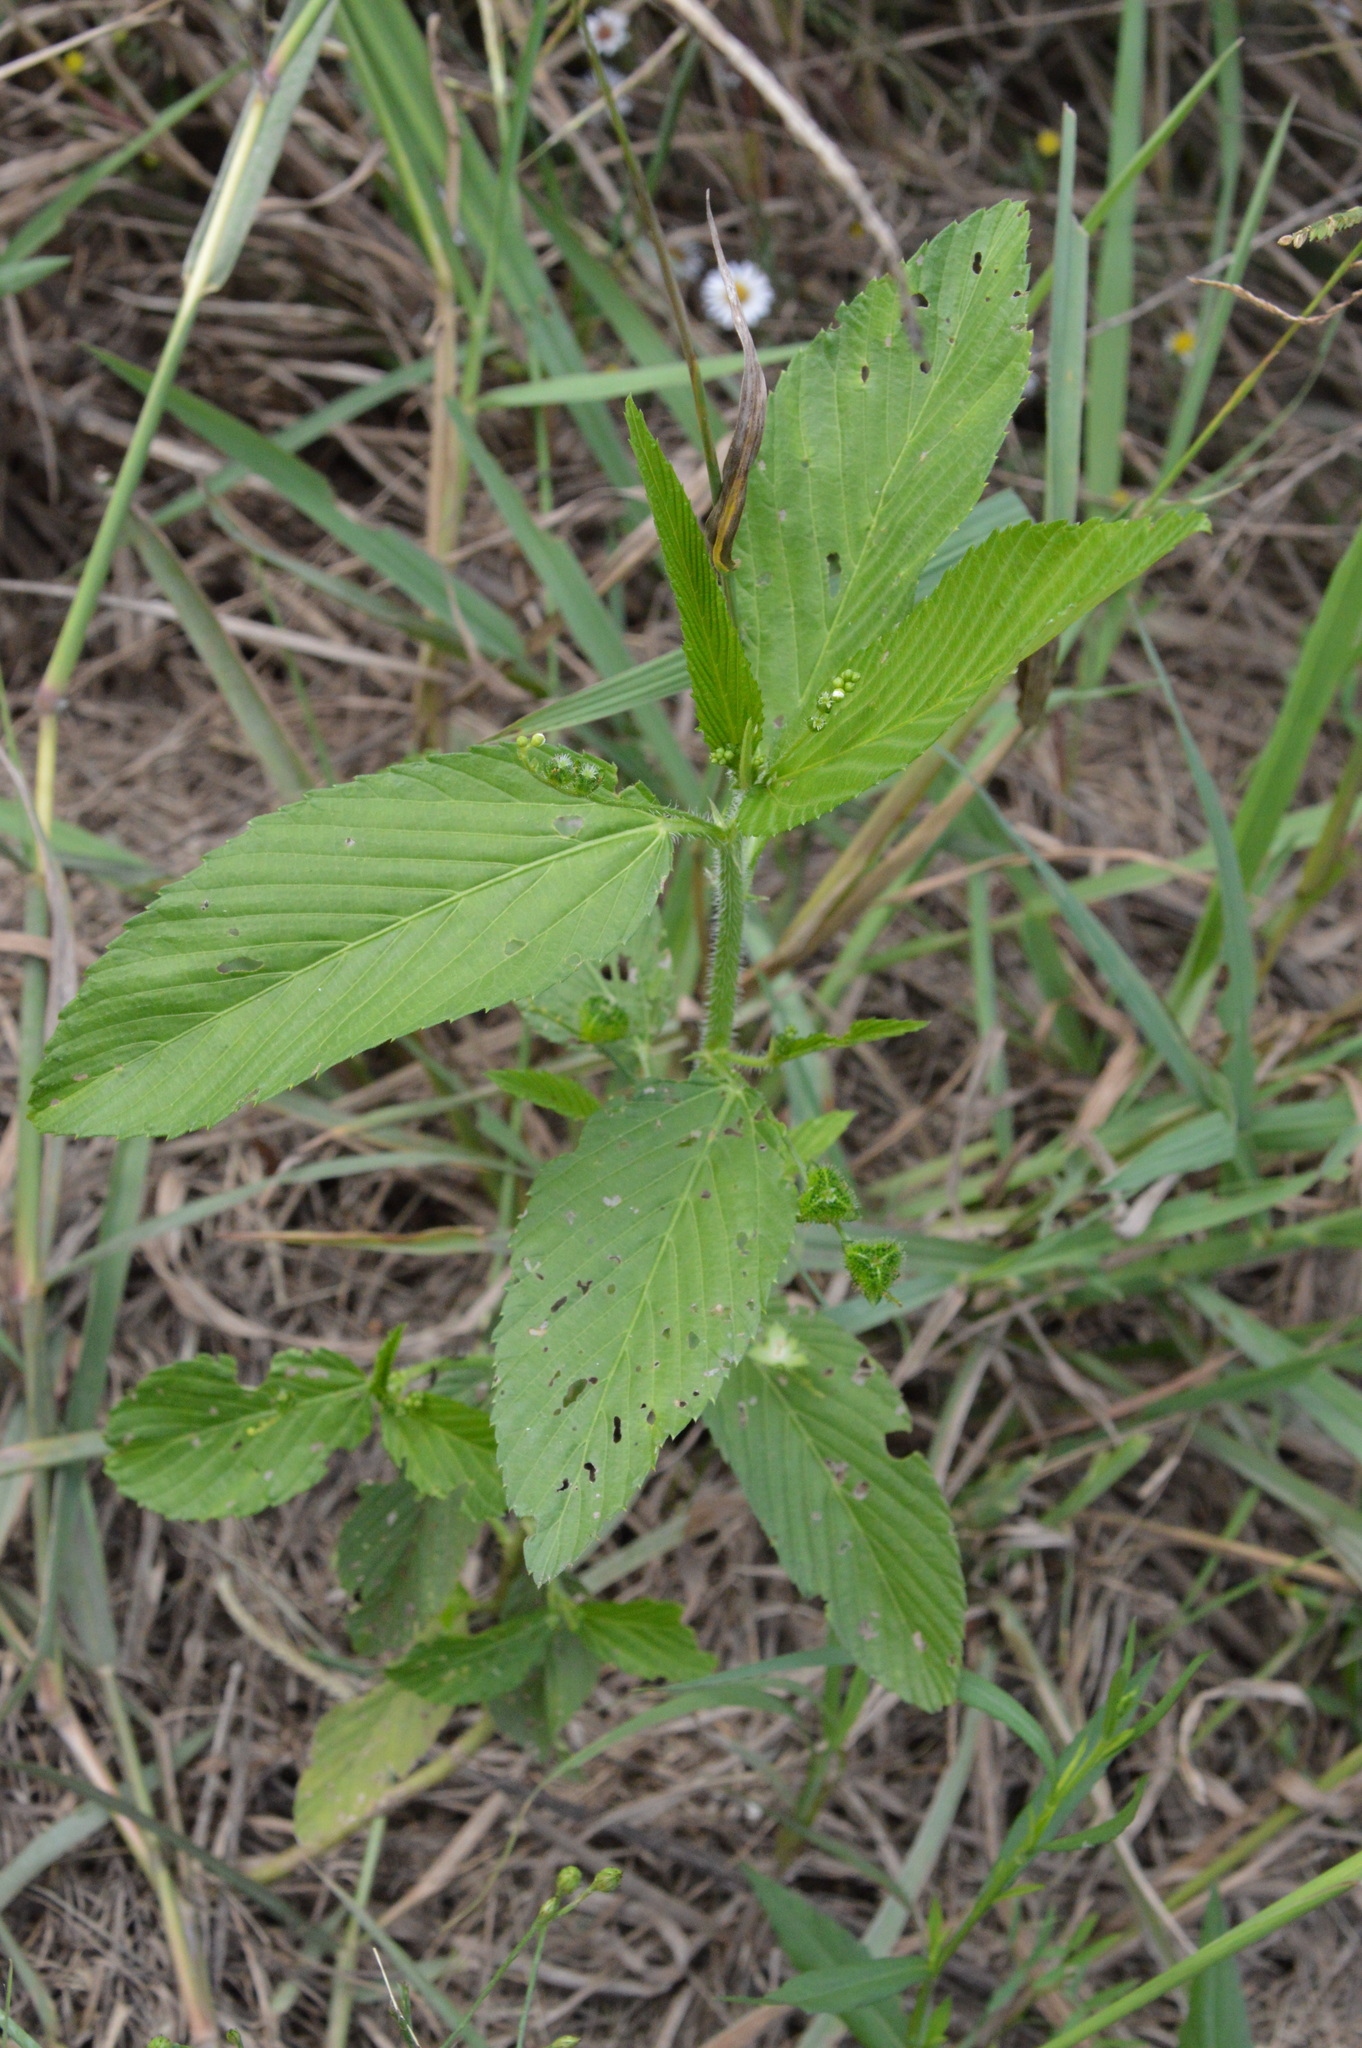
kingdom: Plantae
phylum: Tracheophyta
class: Magnoliopsida
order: Malpighiales
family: Euphorbiaceae
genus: Caperonia
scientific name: Caperonia palustris
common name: Sacatrapo
